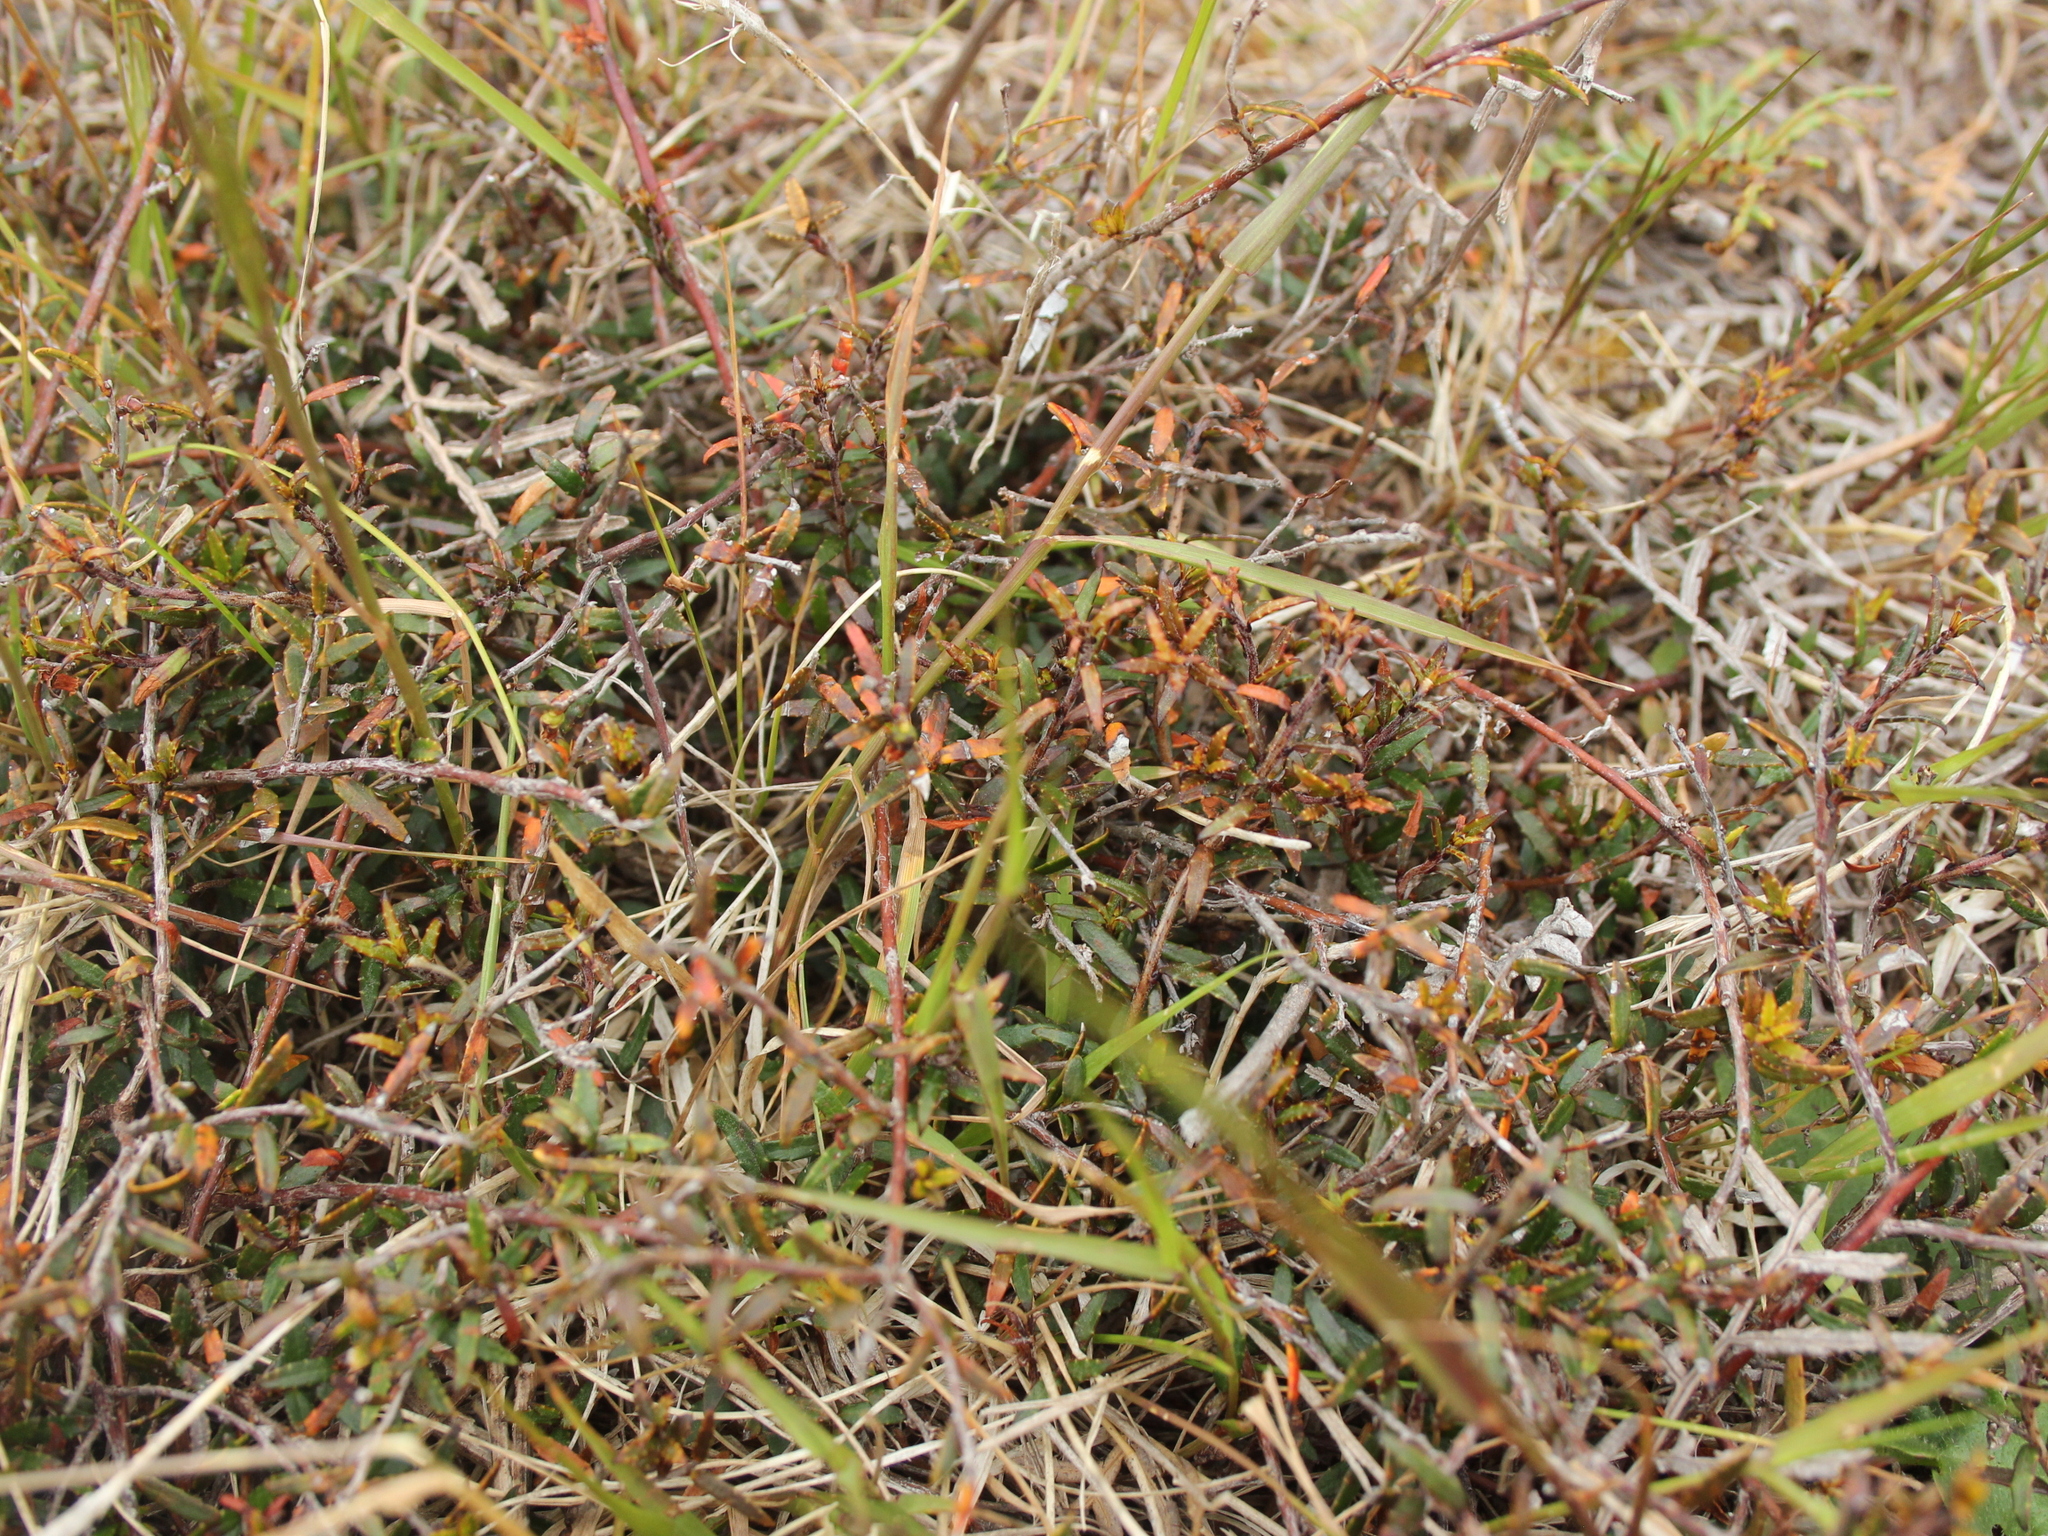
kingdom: Plantae
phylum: Tracheophyta
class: Magnoliopsida
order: Ericales
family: Ericaceae
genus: Gaultheria
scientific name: Gaultheria macrostigma
